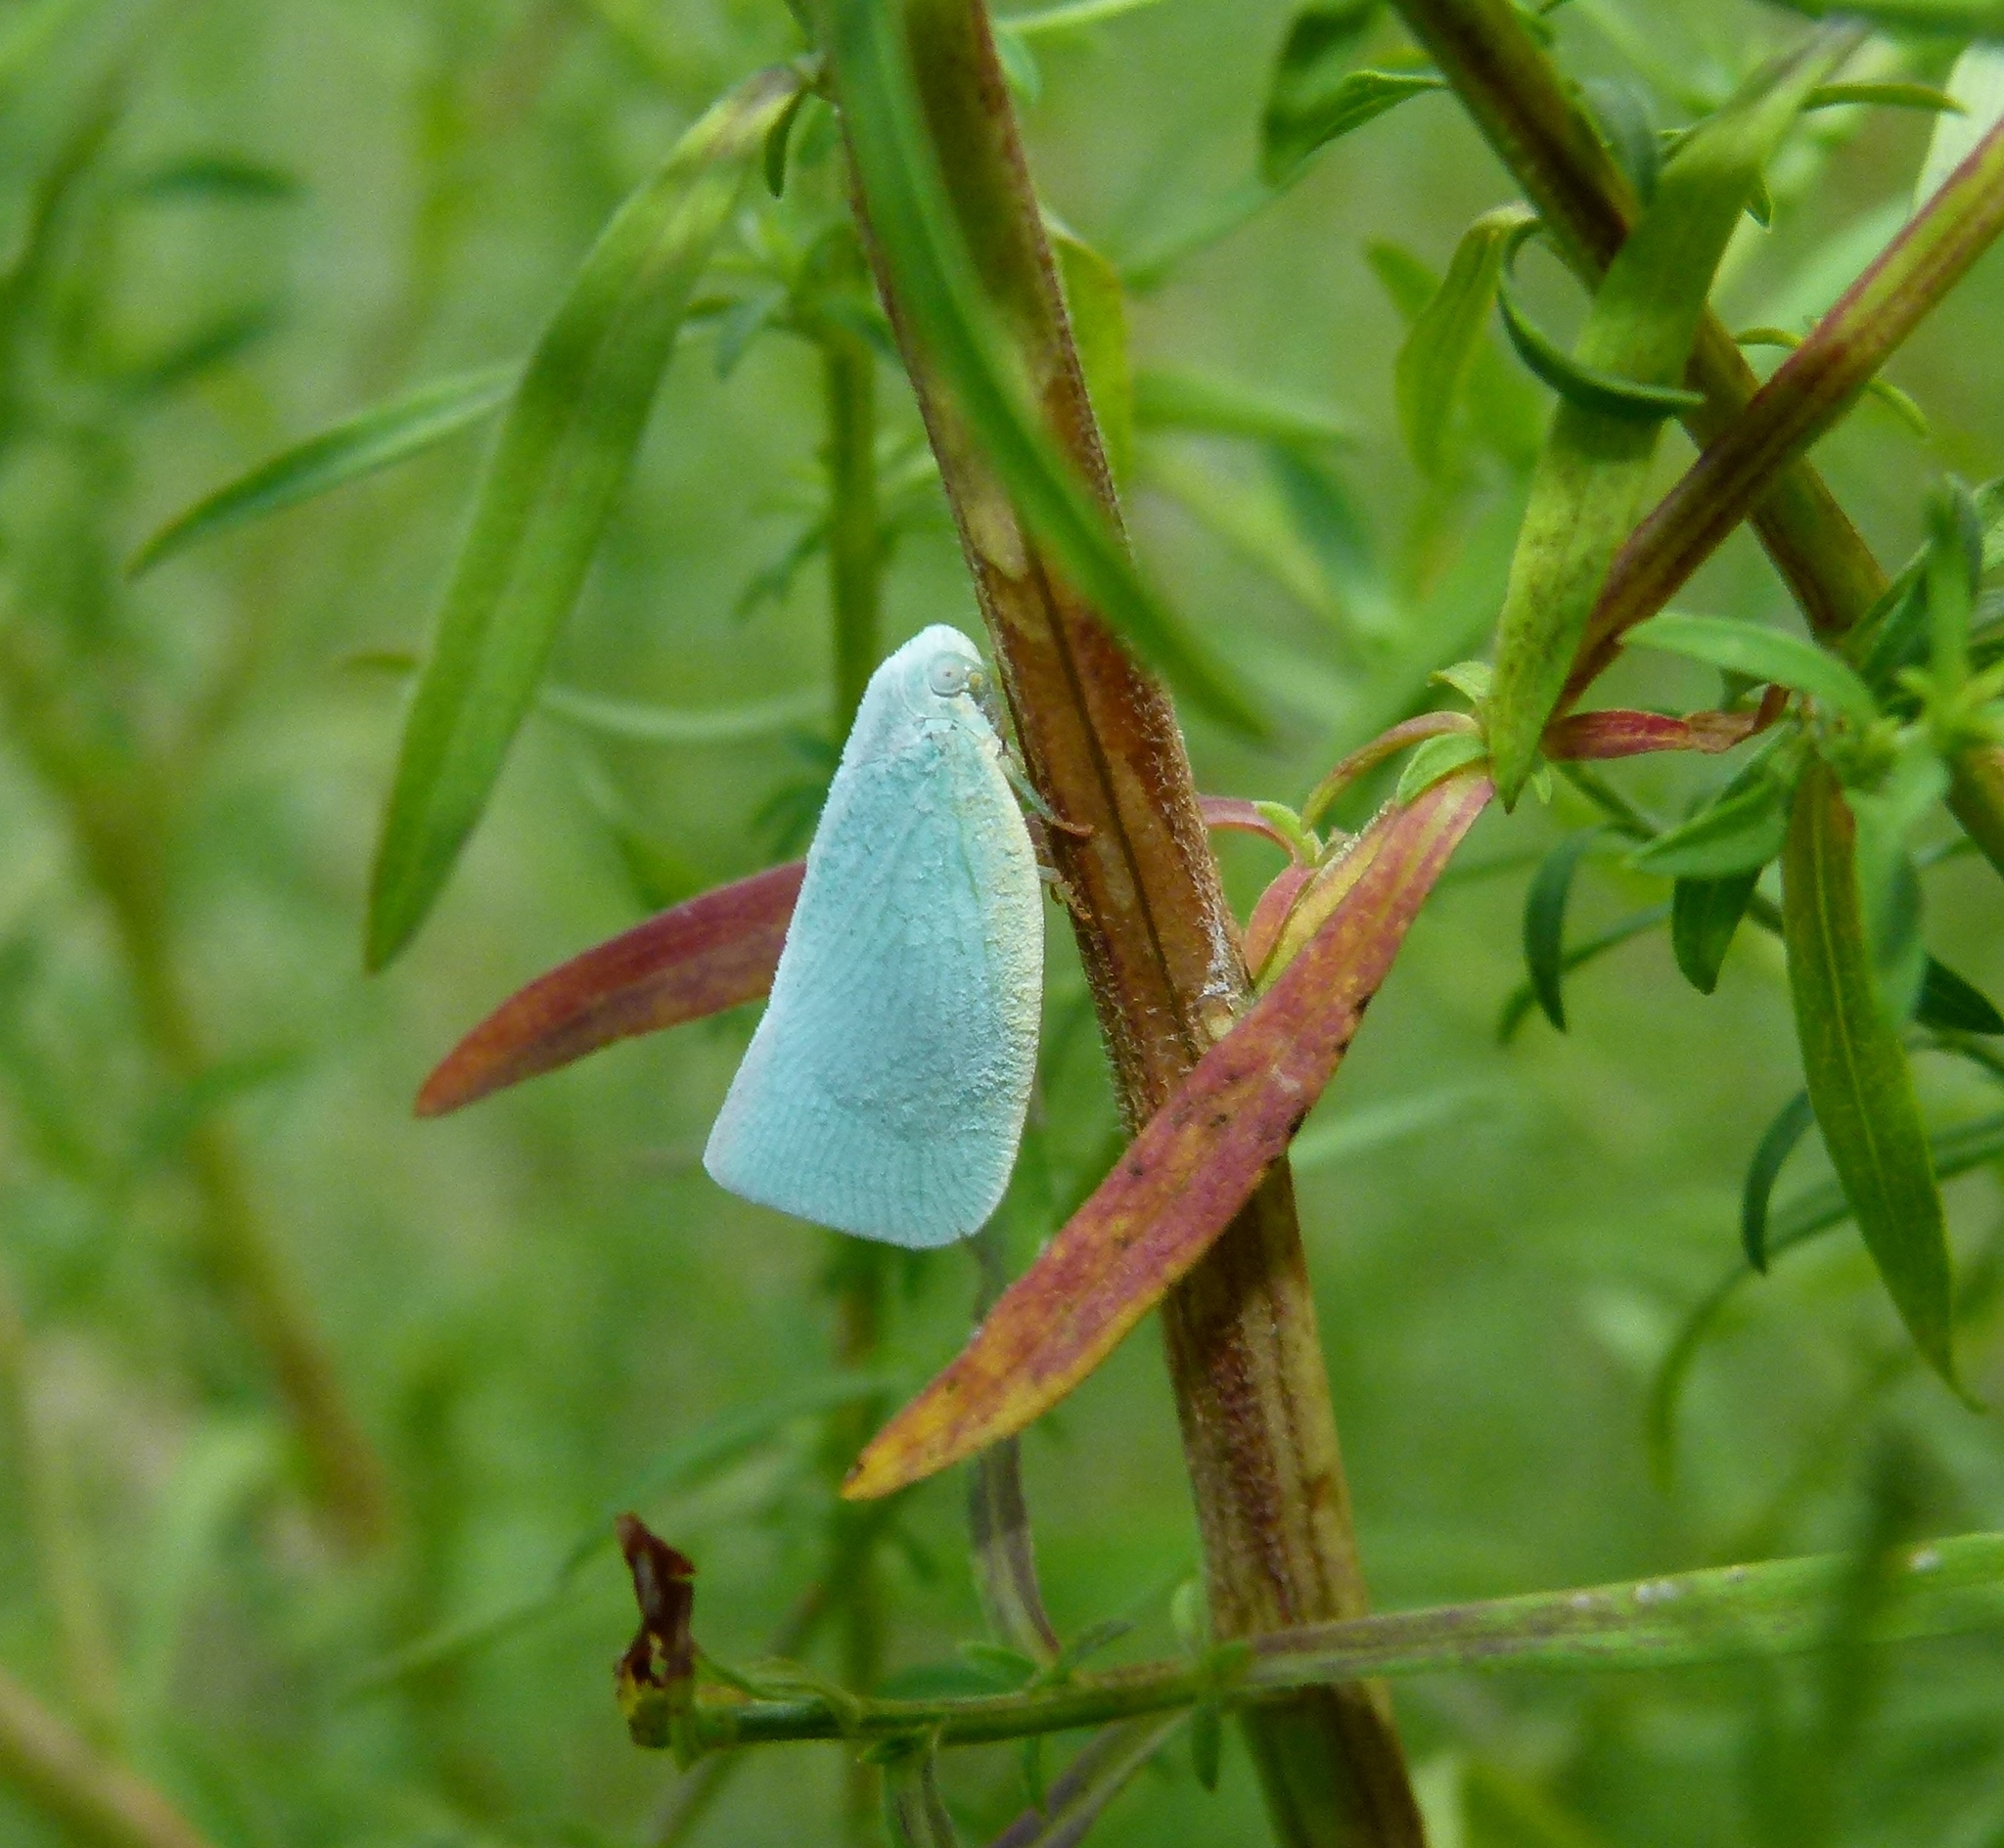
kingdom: Animalia
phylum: Arthropoda
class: Insecta
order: Hemiptera
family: Flatidae
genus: Flatormenis
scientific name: Flatormenis proxima
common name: Northern flatid planthopper
